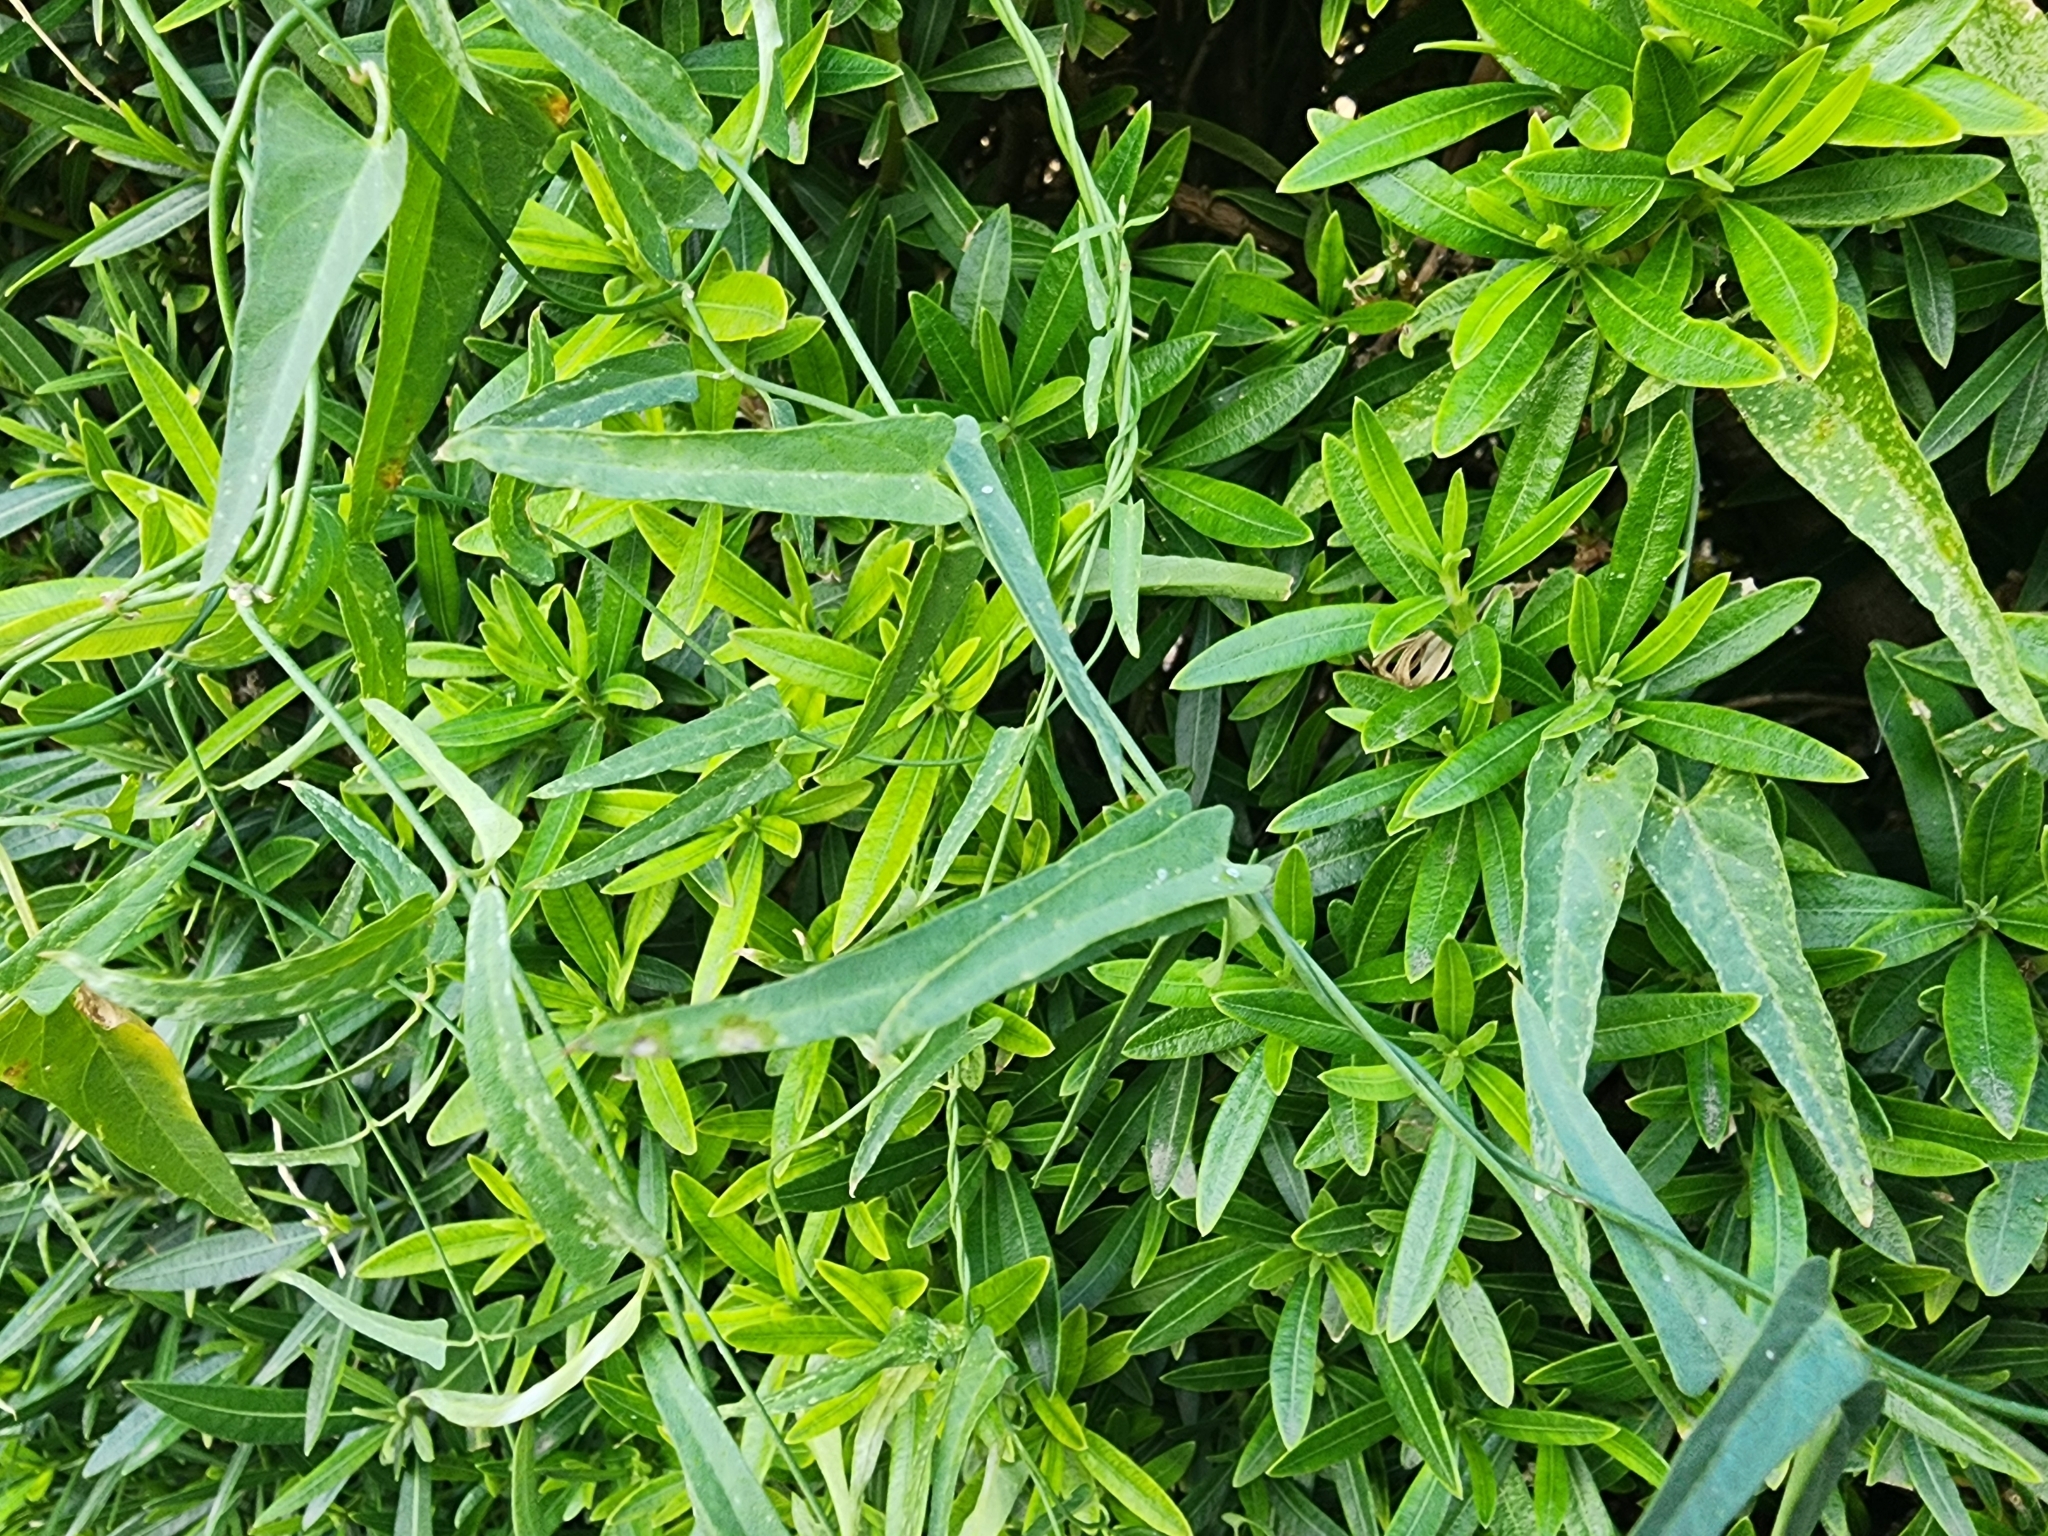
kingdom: Plantae
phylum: Tracheophyta
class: Magnoliopsida
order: Gentianales
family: Apocynaceae
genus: Funastrum
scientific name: Funastrum heterophyllum
